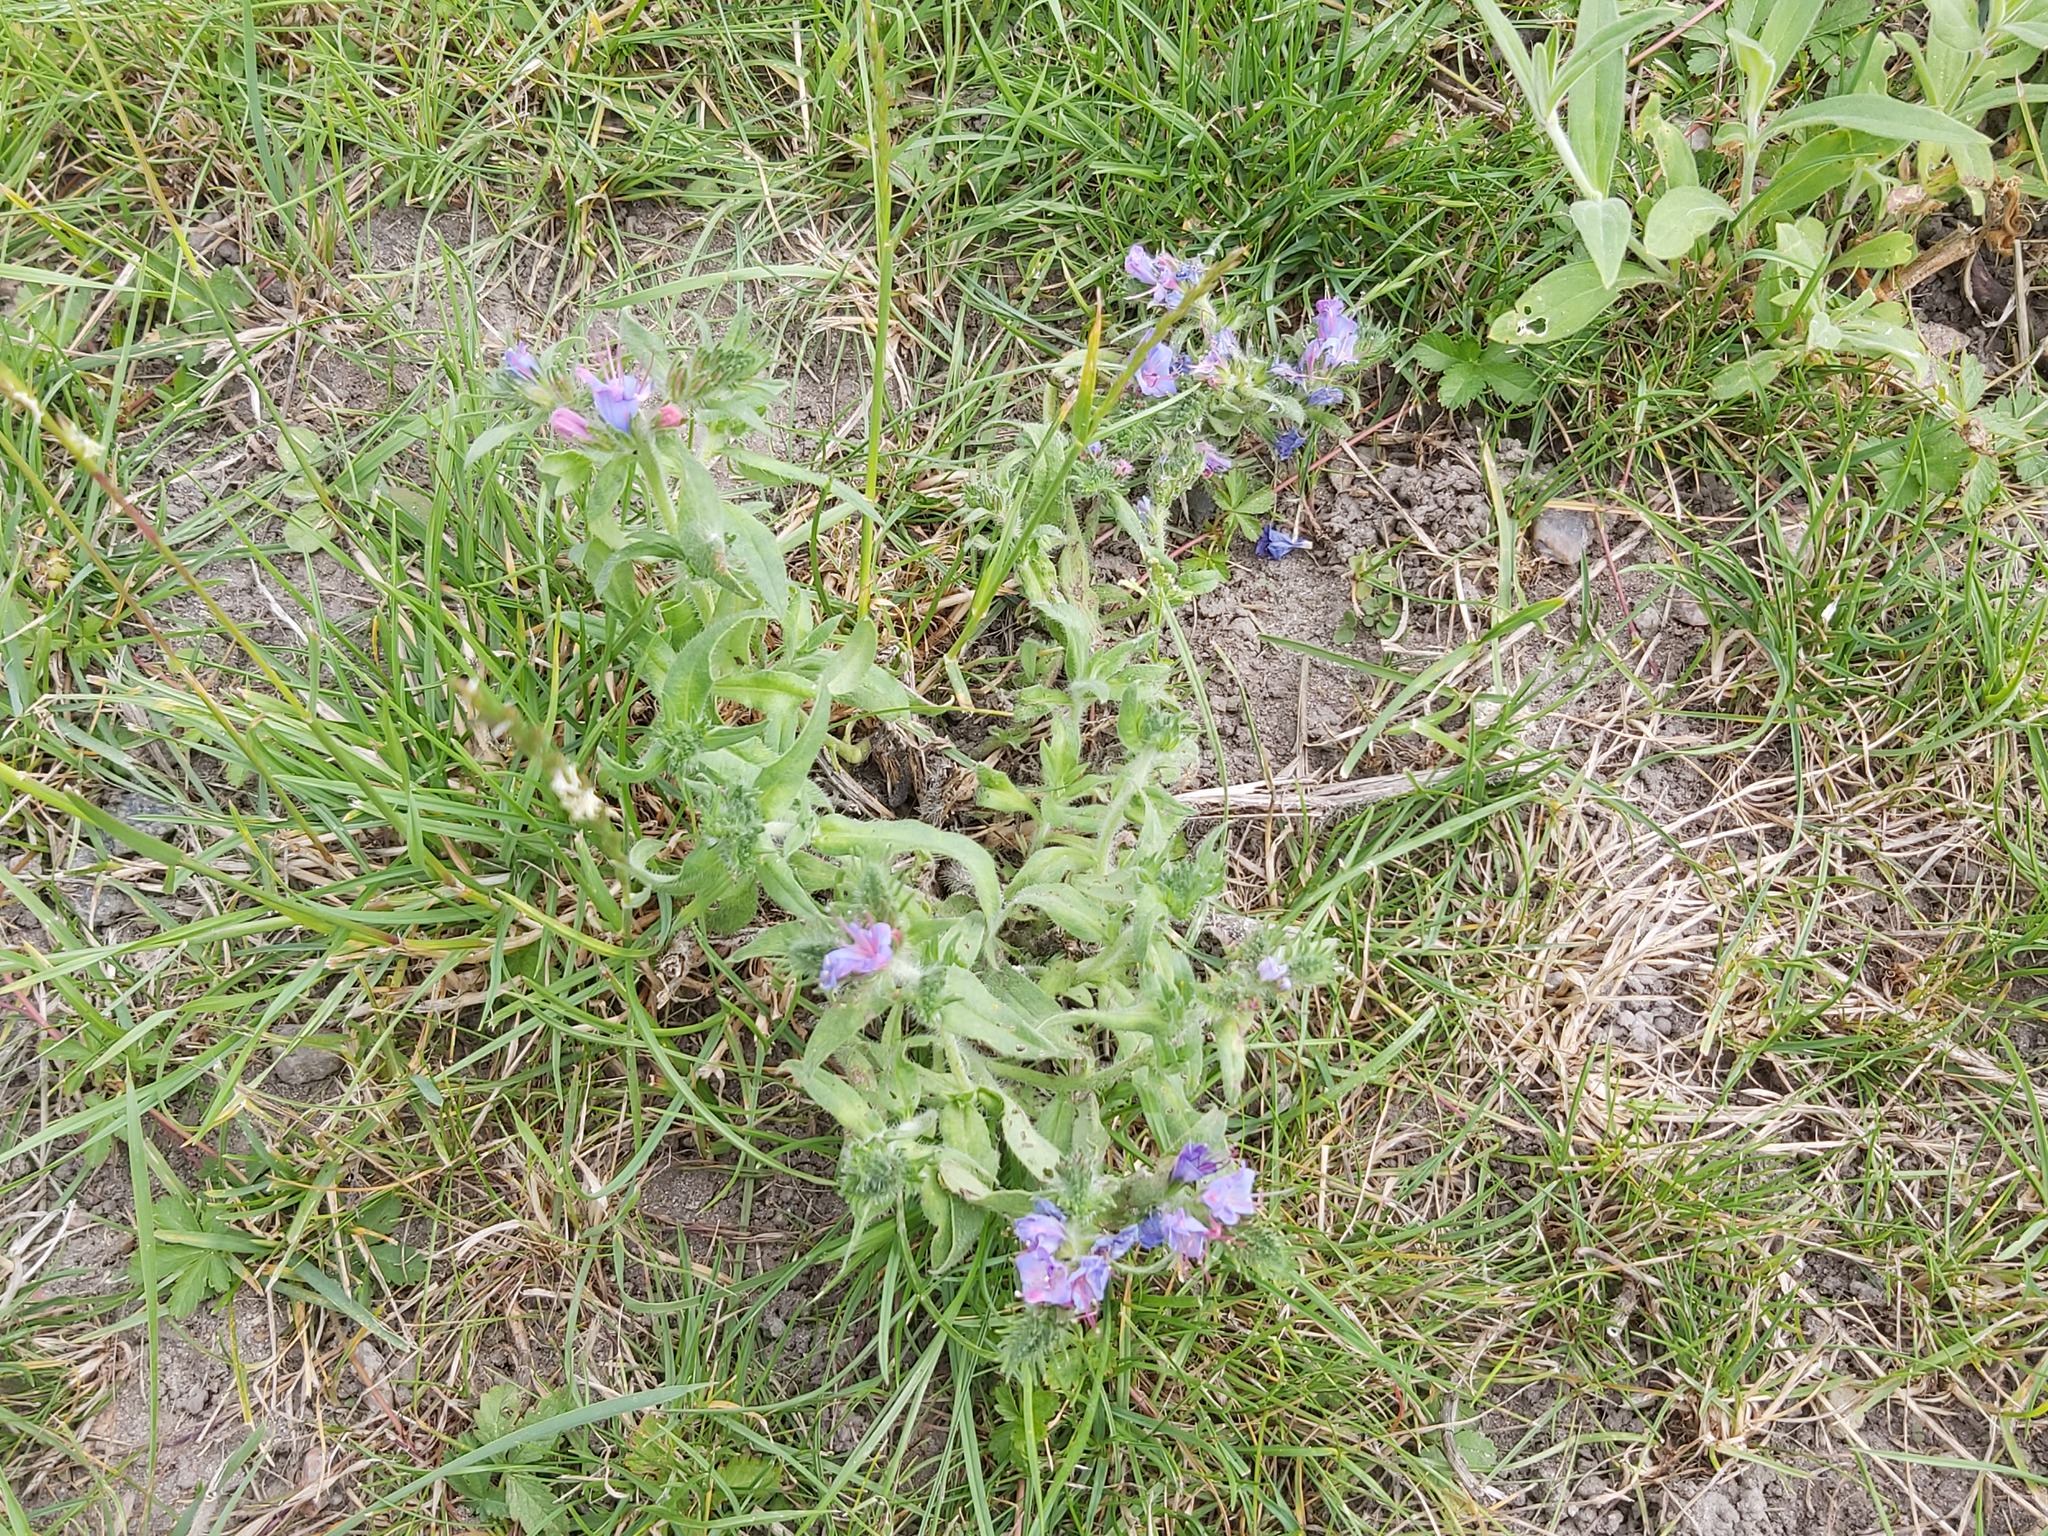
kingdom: Plantae
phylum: Tracheophyta
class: Magnoliopsida
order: Boraginales
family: Boraginaceae
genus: Echium
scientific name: Echium vulgare
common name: Common viper's bugloss
